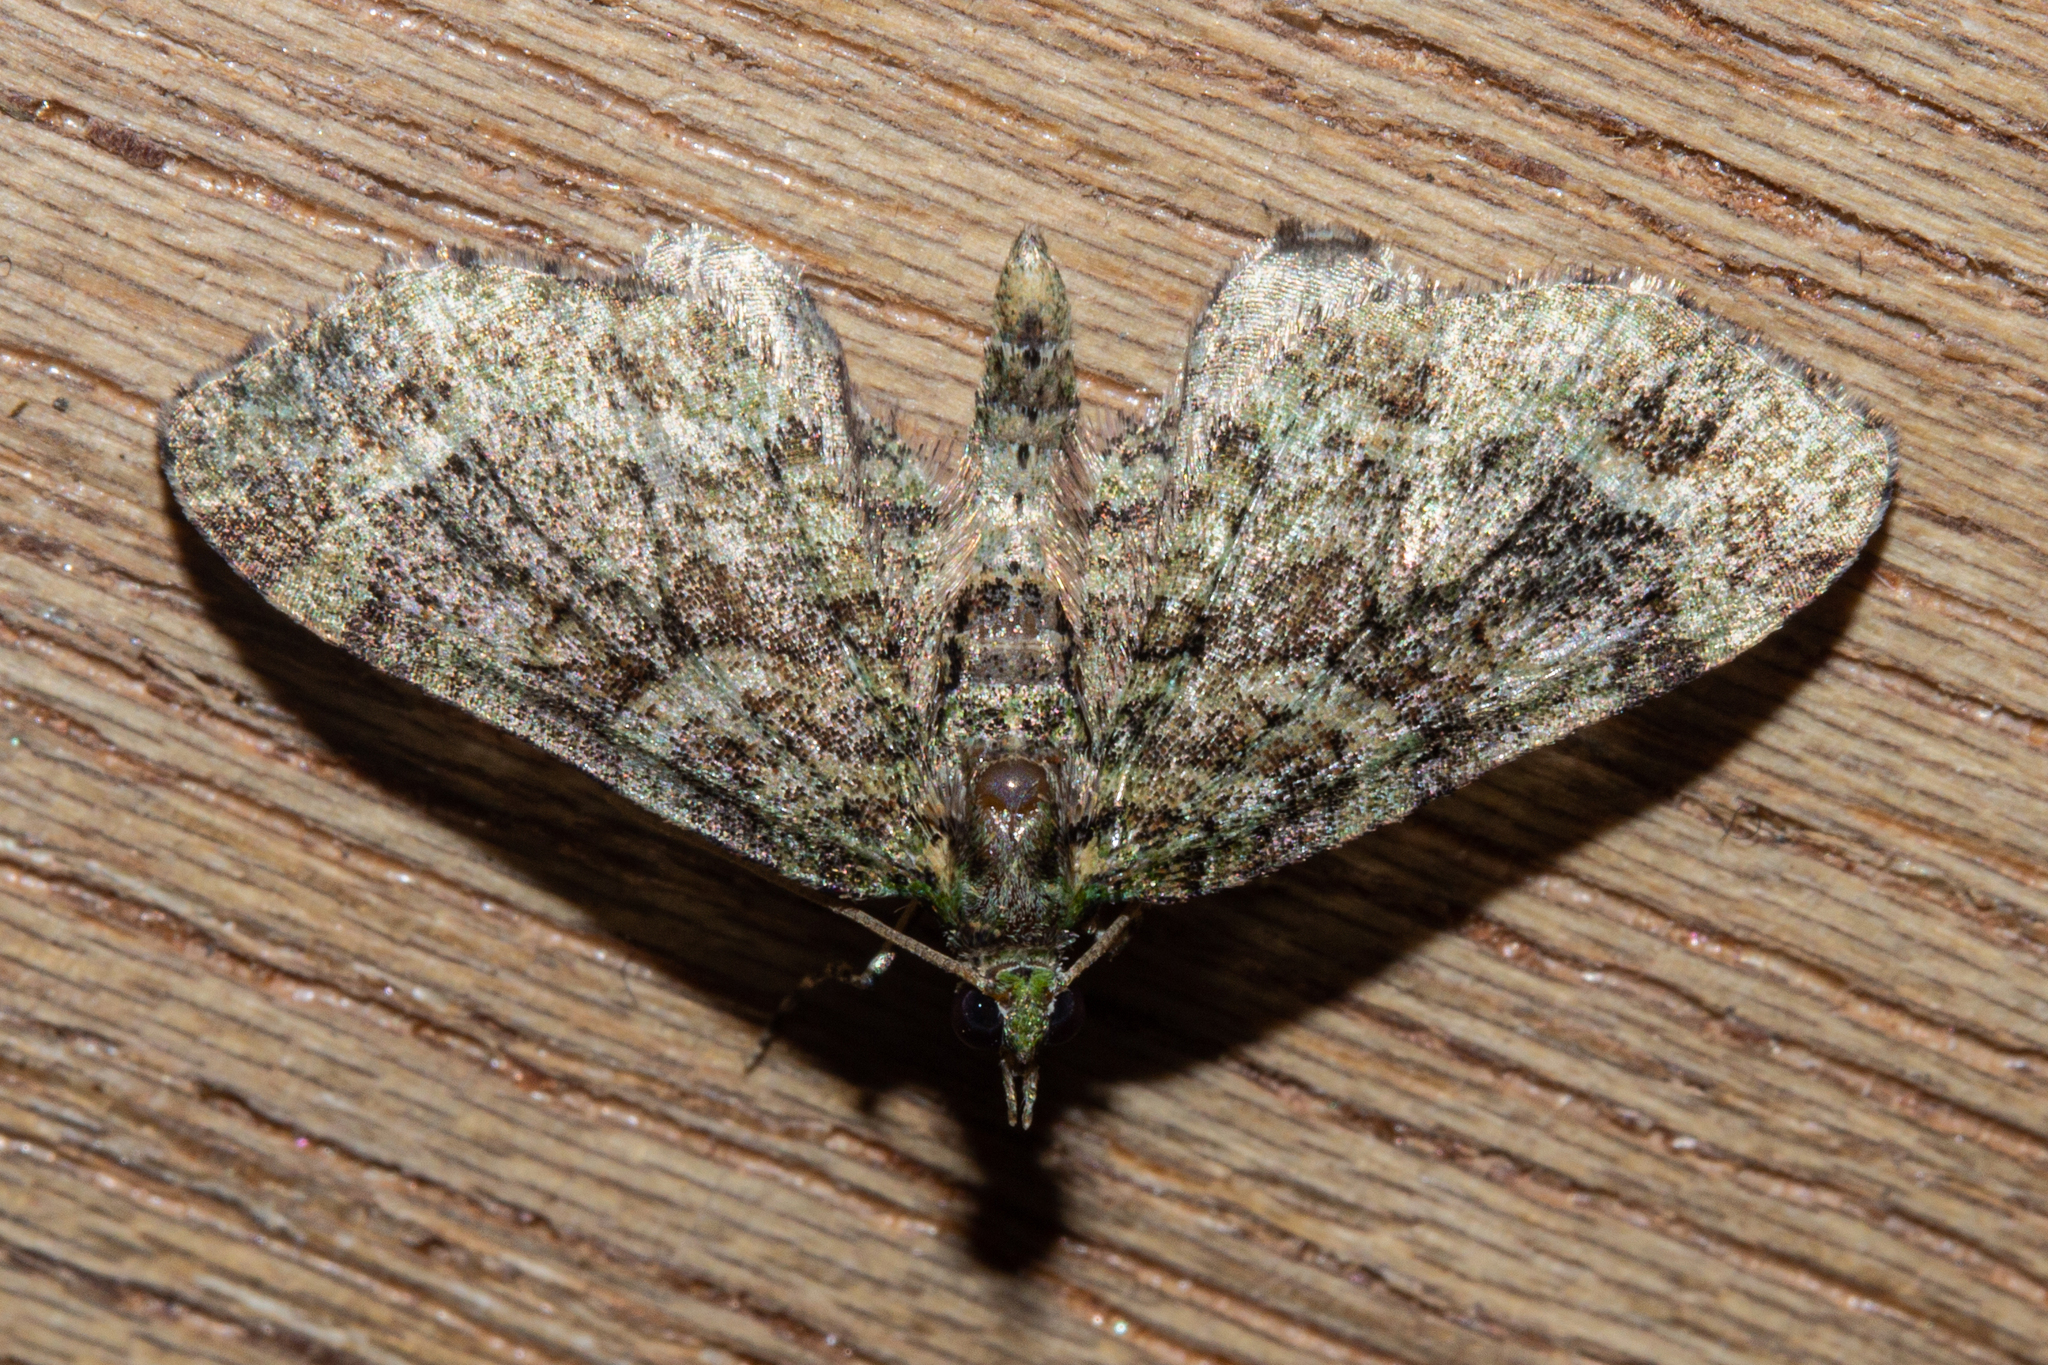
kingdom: Animalia
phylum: Arthropoda
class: Insecta
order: Lepidoptera
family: Geometridae
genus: Idaea
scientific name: Idaea mutanda
